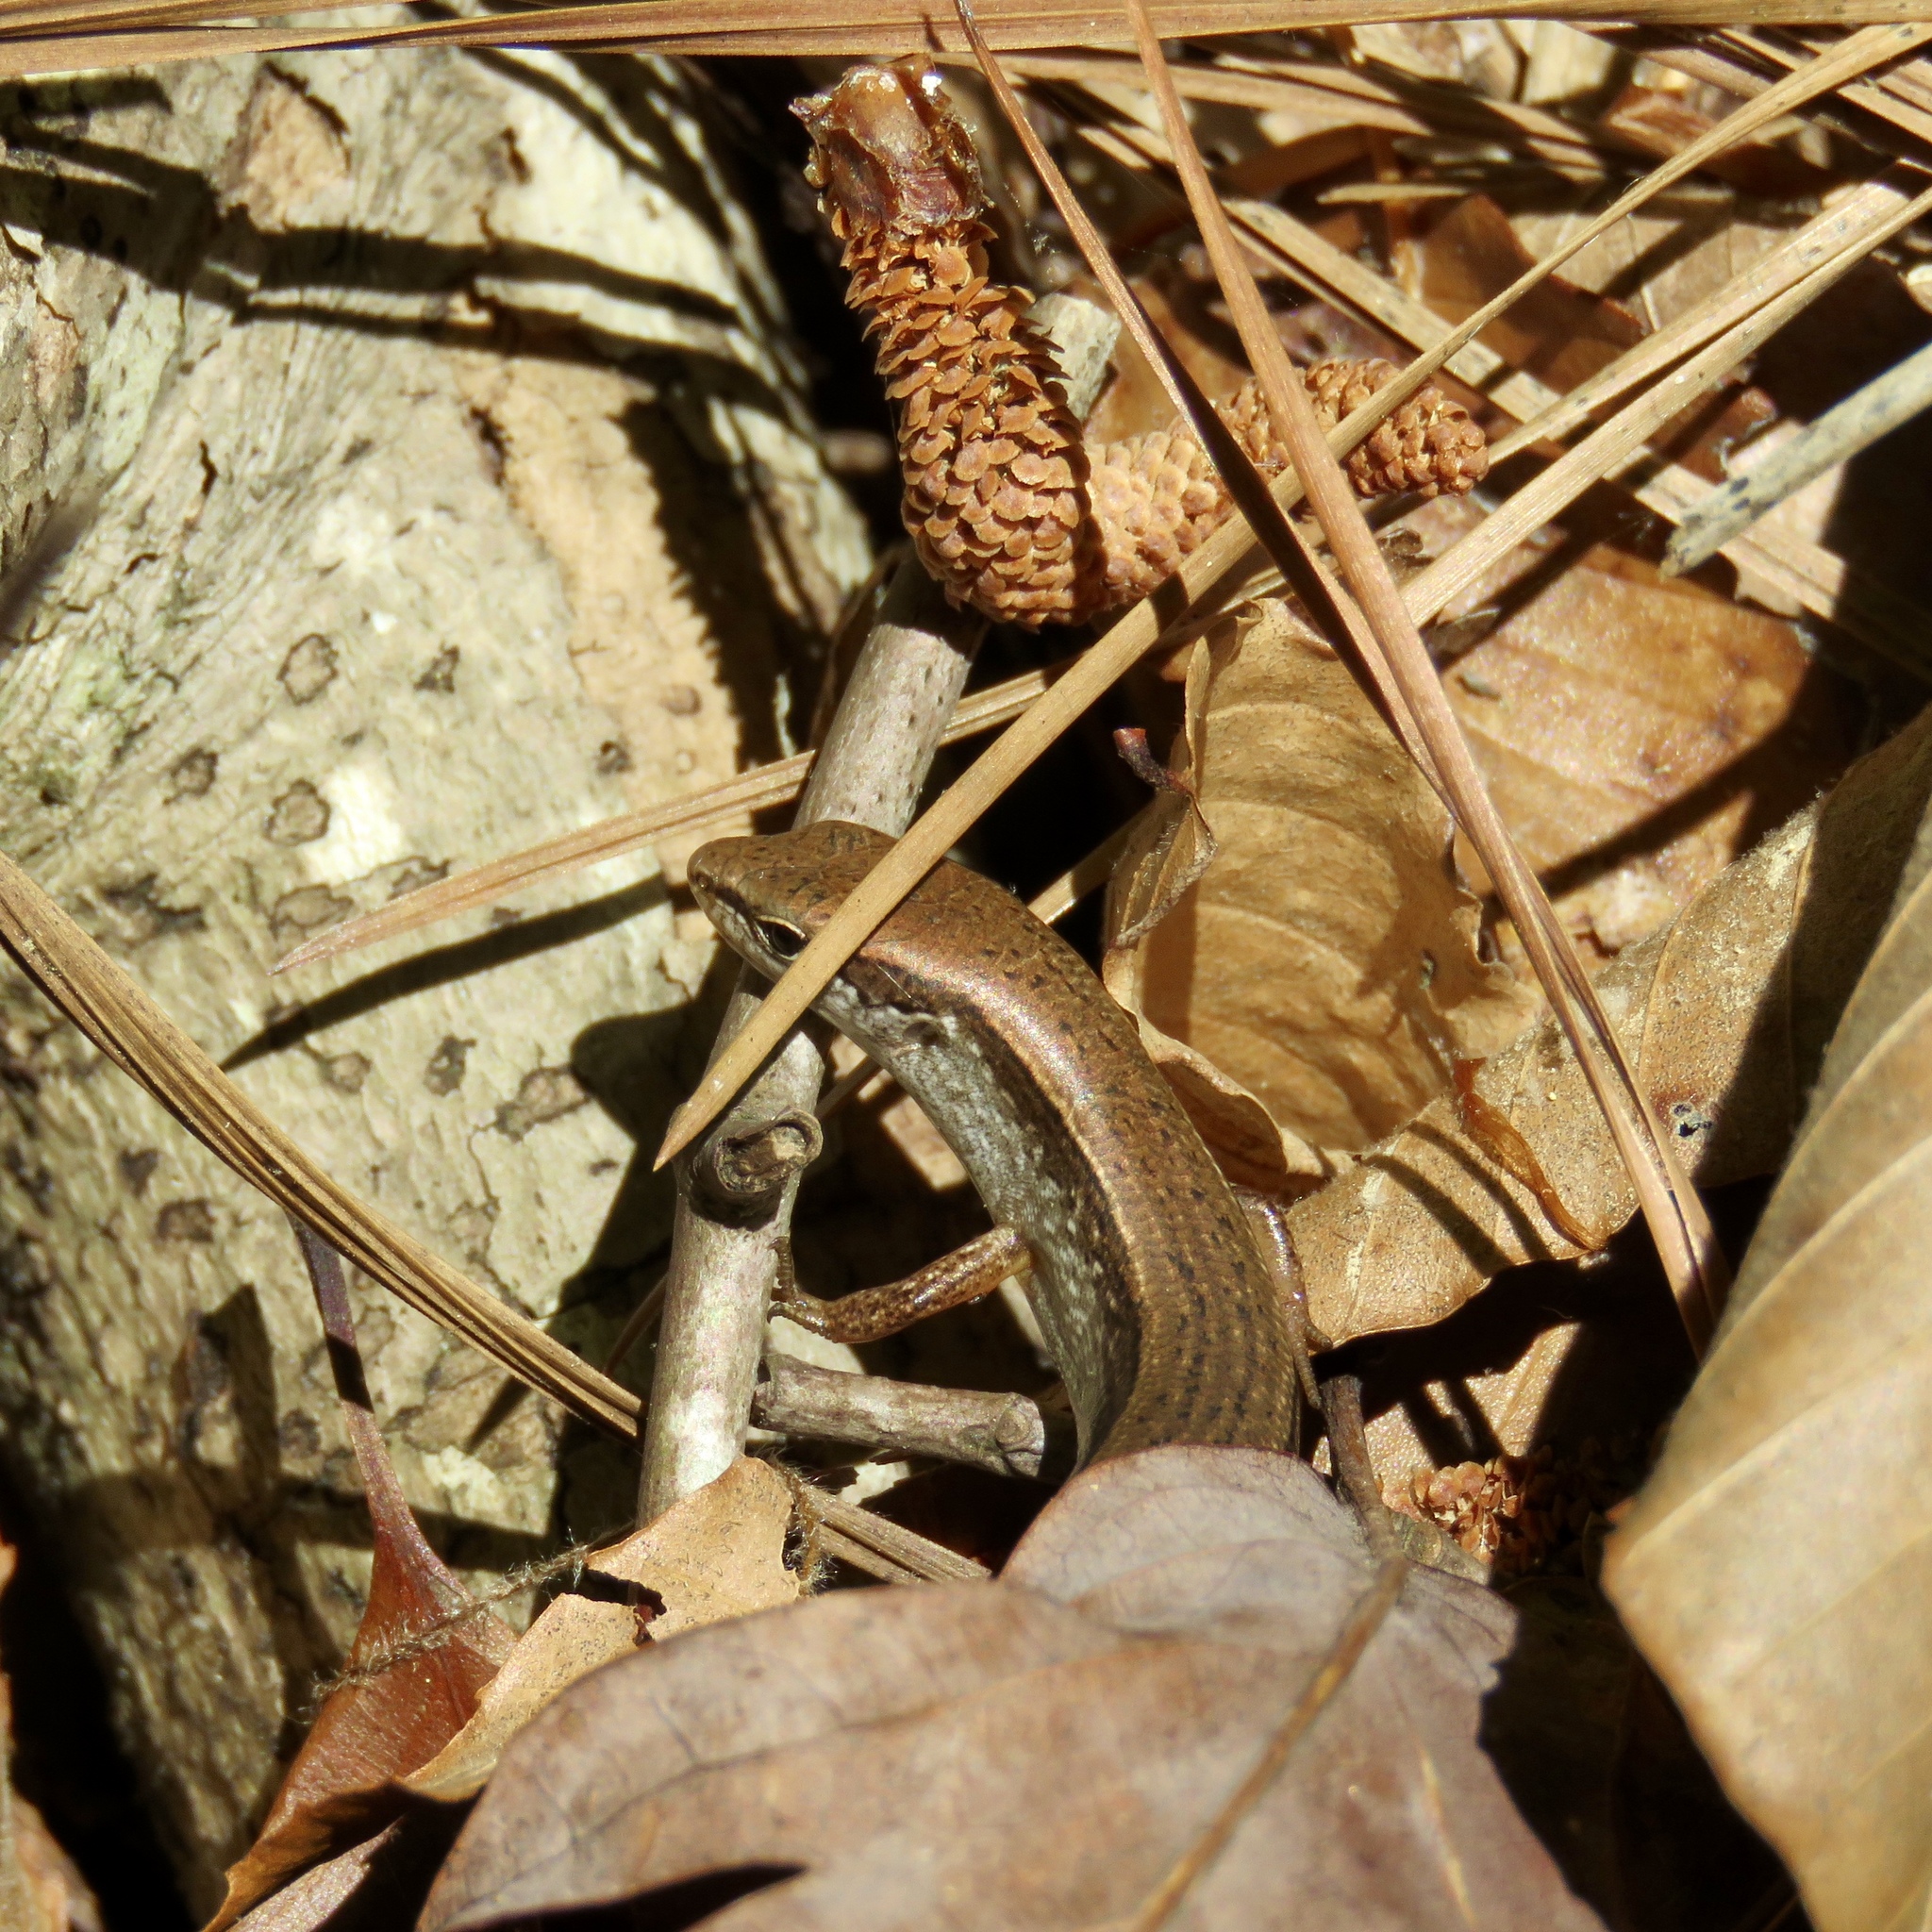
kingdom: Animalia
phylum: Chordata
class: Squamata
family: Scincidae
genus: Scincella
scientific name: Scincella lateralis
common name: Ground skink
